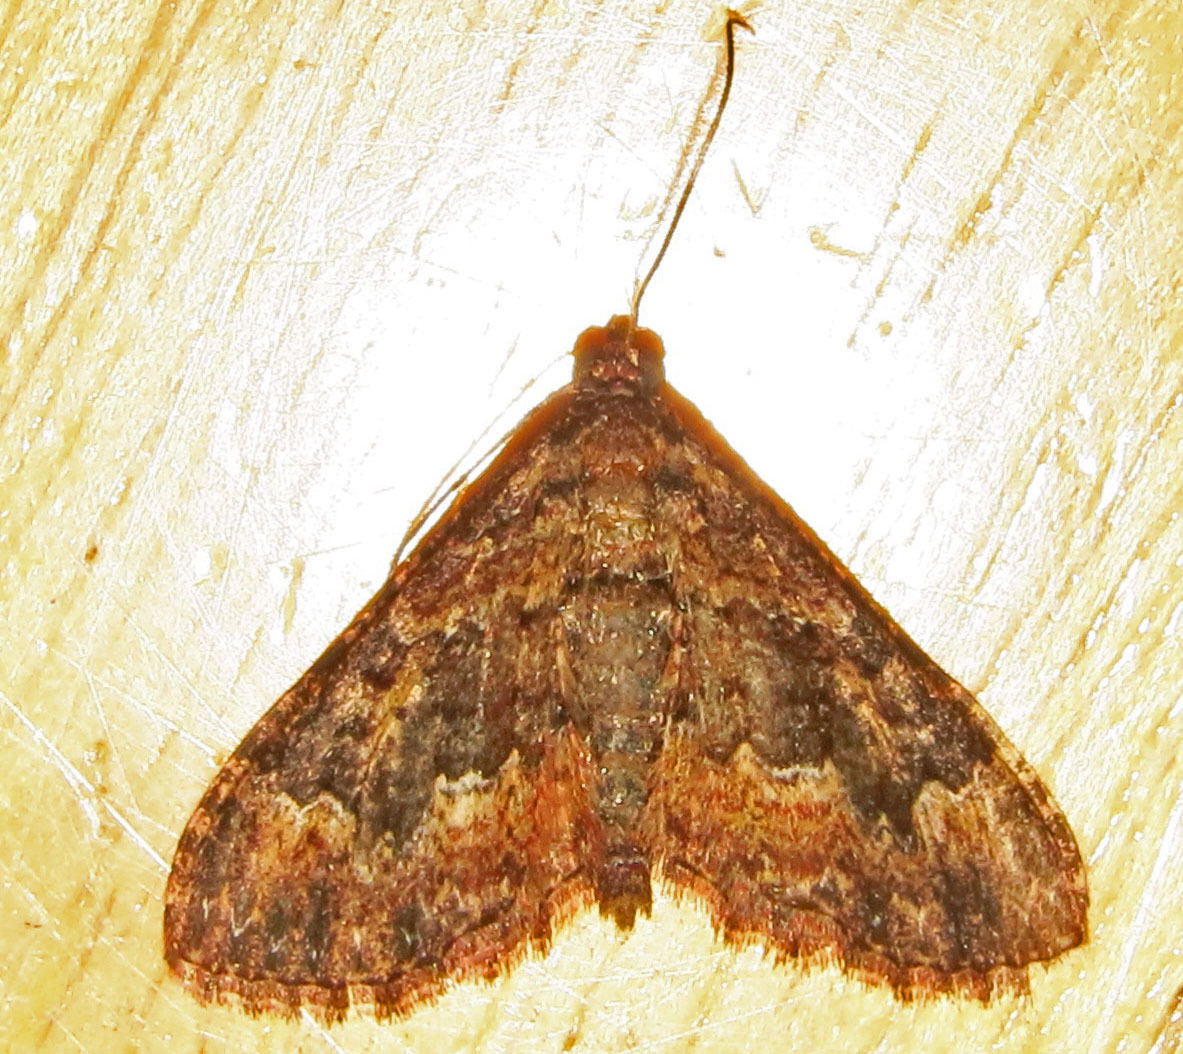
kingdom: Animalia
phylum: Arthropoda
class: Insecta
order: Lepidoptera
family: Geometridae
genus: Disclisioprocta
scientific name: Disclisioprocta stellata
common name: Somber carpet
